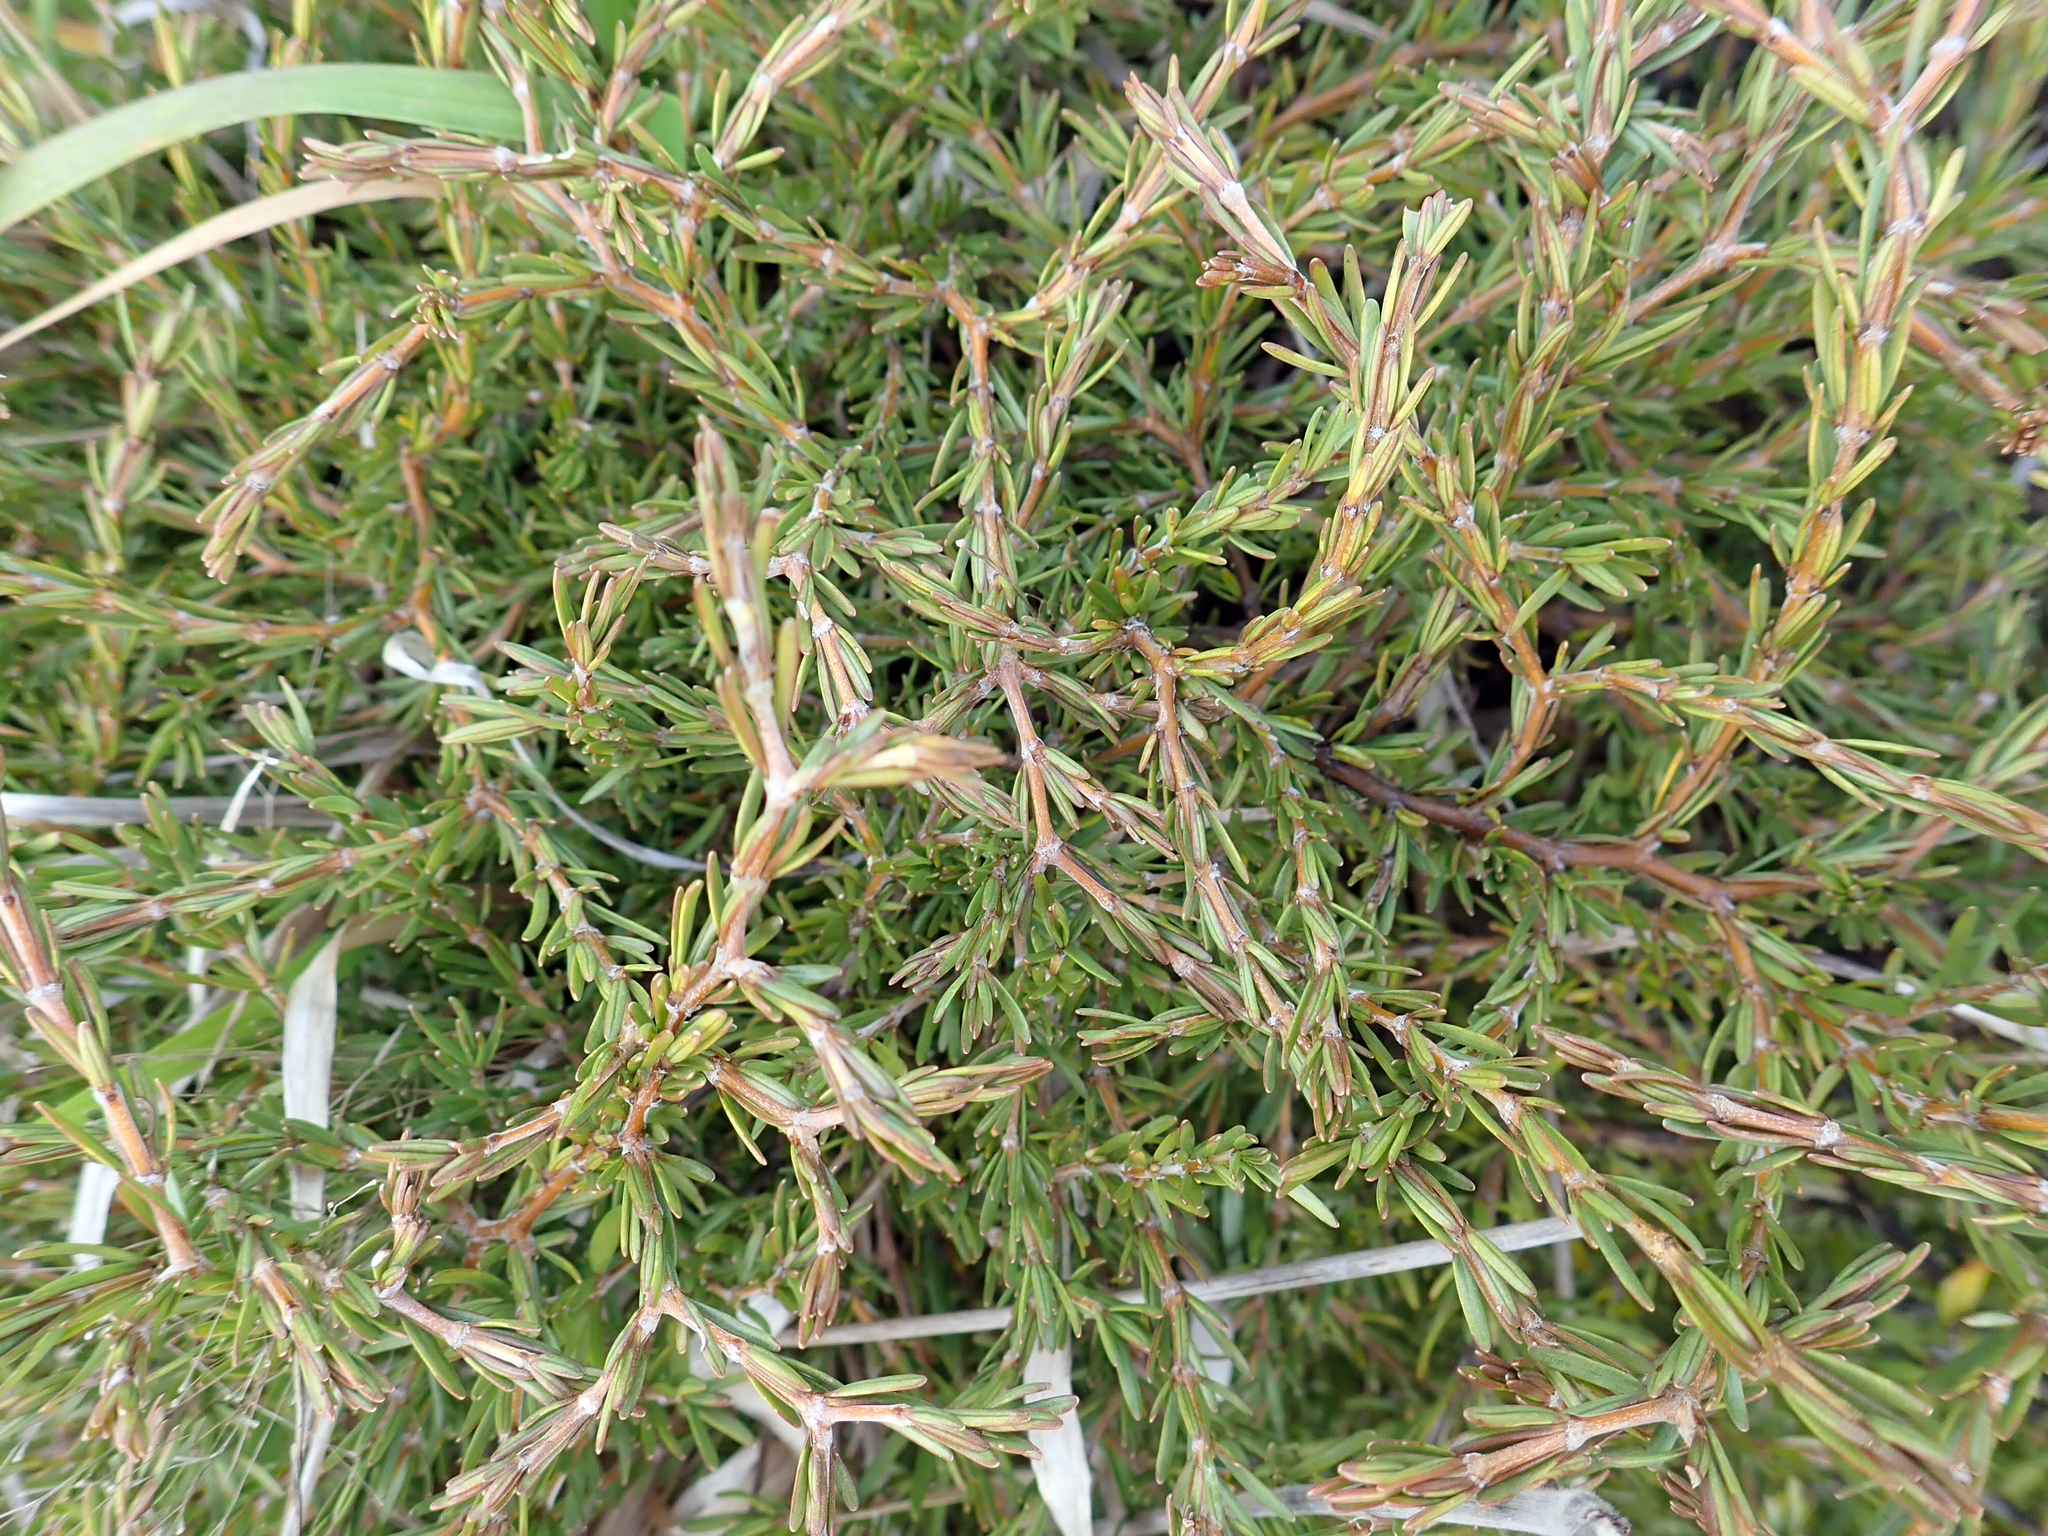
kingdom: Plantae
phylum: Tracheophyta
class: Magnoliopsida
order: Gentianales
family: Rubiaceae
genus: Coprosma
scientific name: Coprosma acerosa
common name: Sand coprosma
